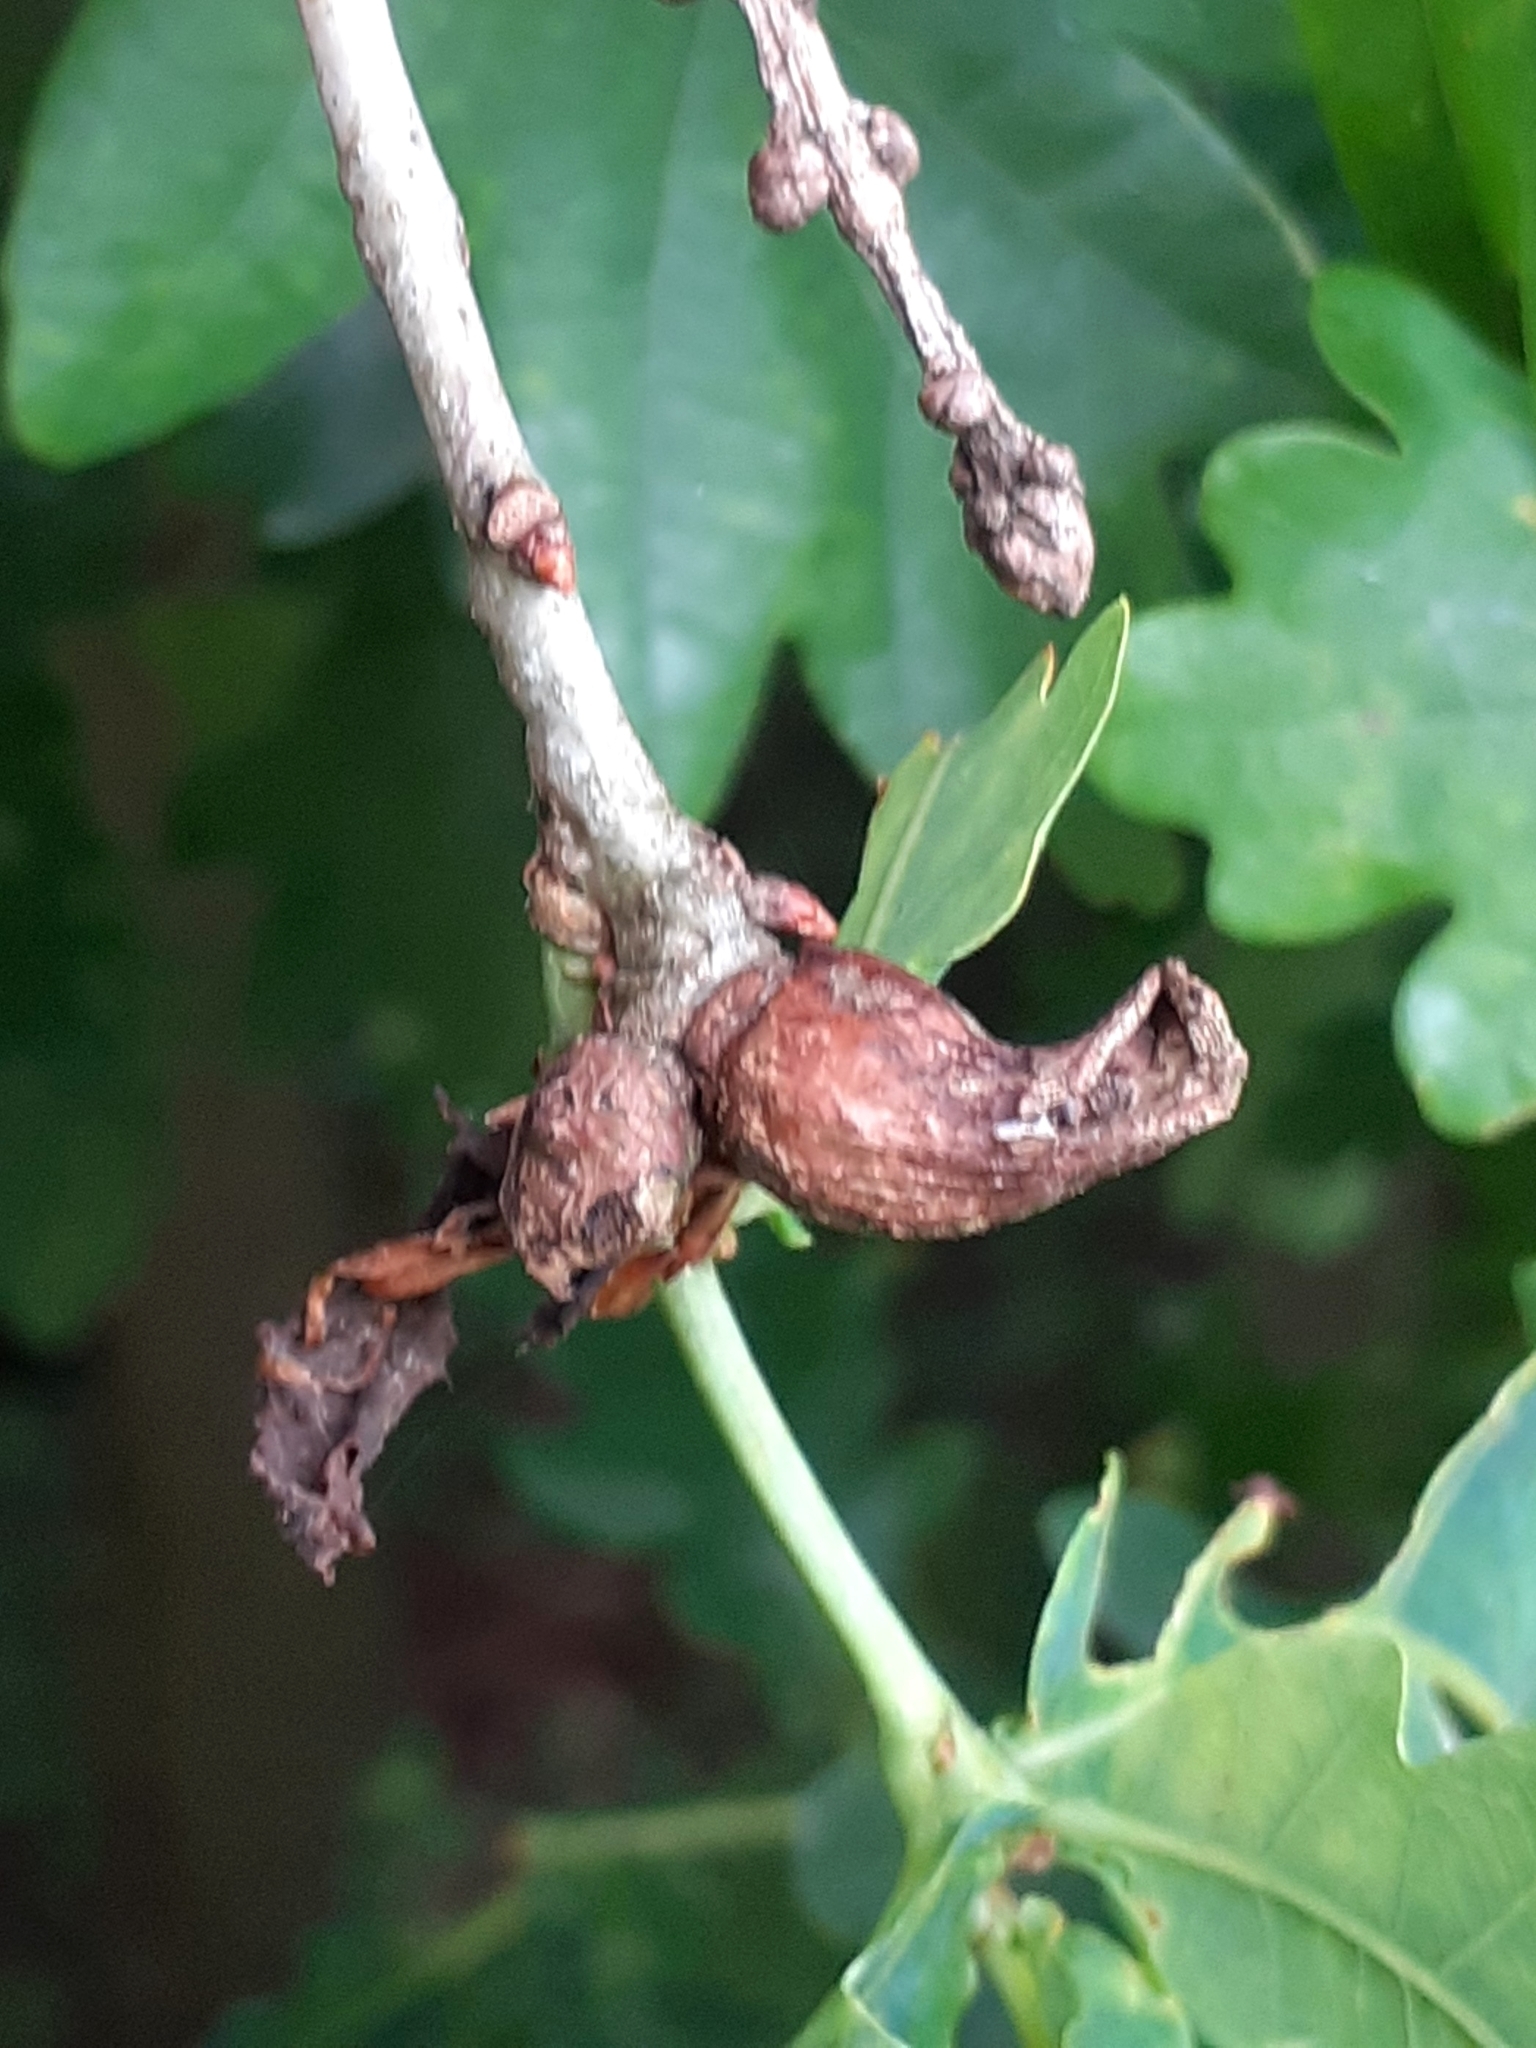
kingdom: Animalia
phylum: Arthropoda
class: Insecta
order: Hymenoptera
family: Cynipidae
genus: Andricus
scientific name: Andricus aries
